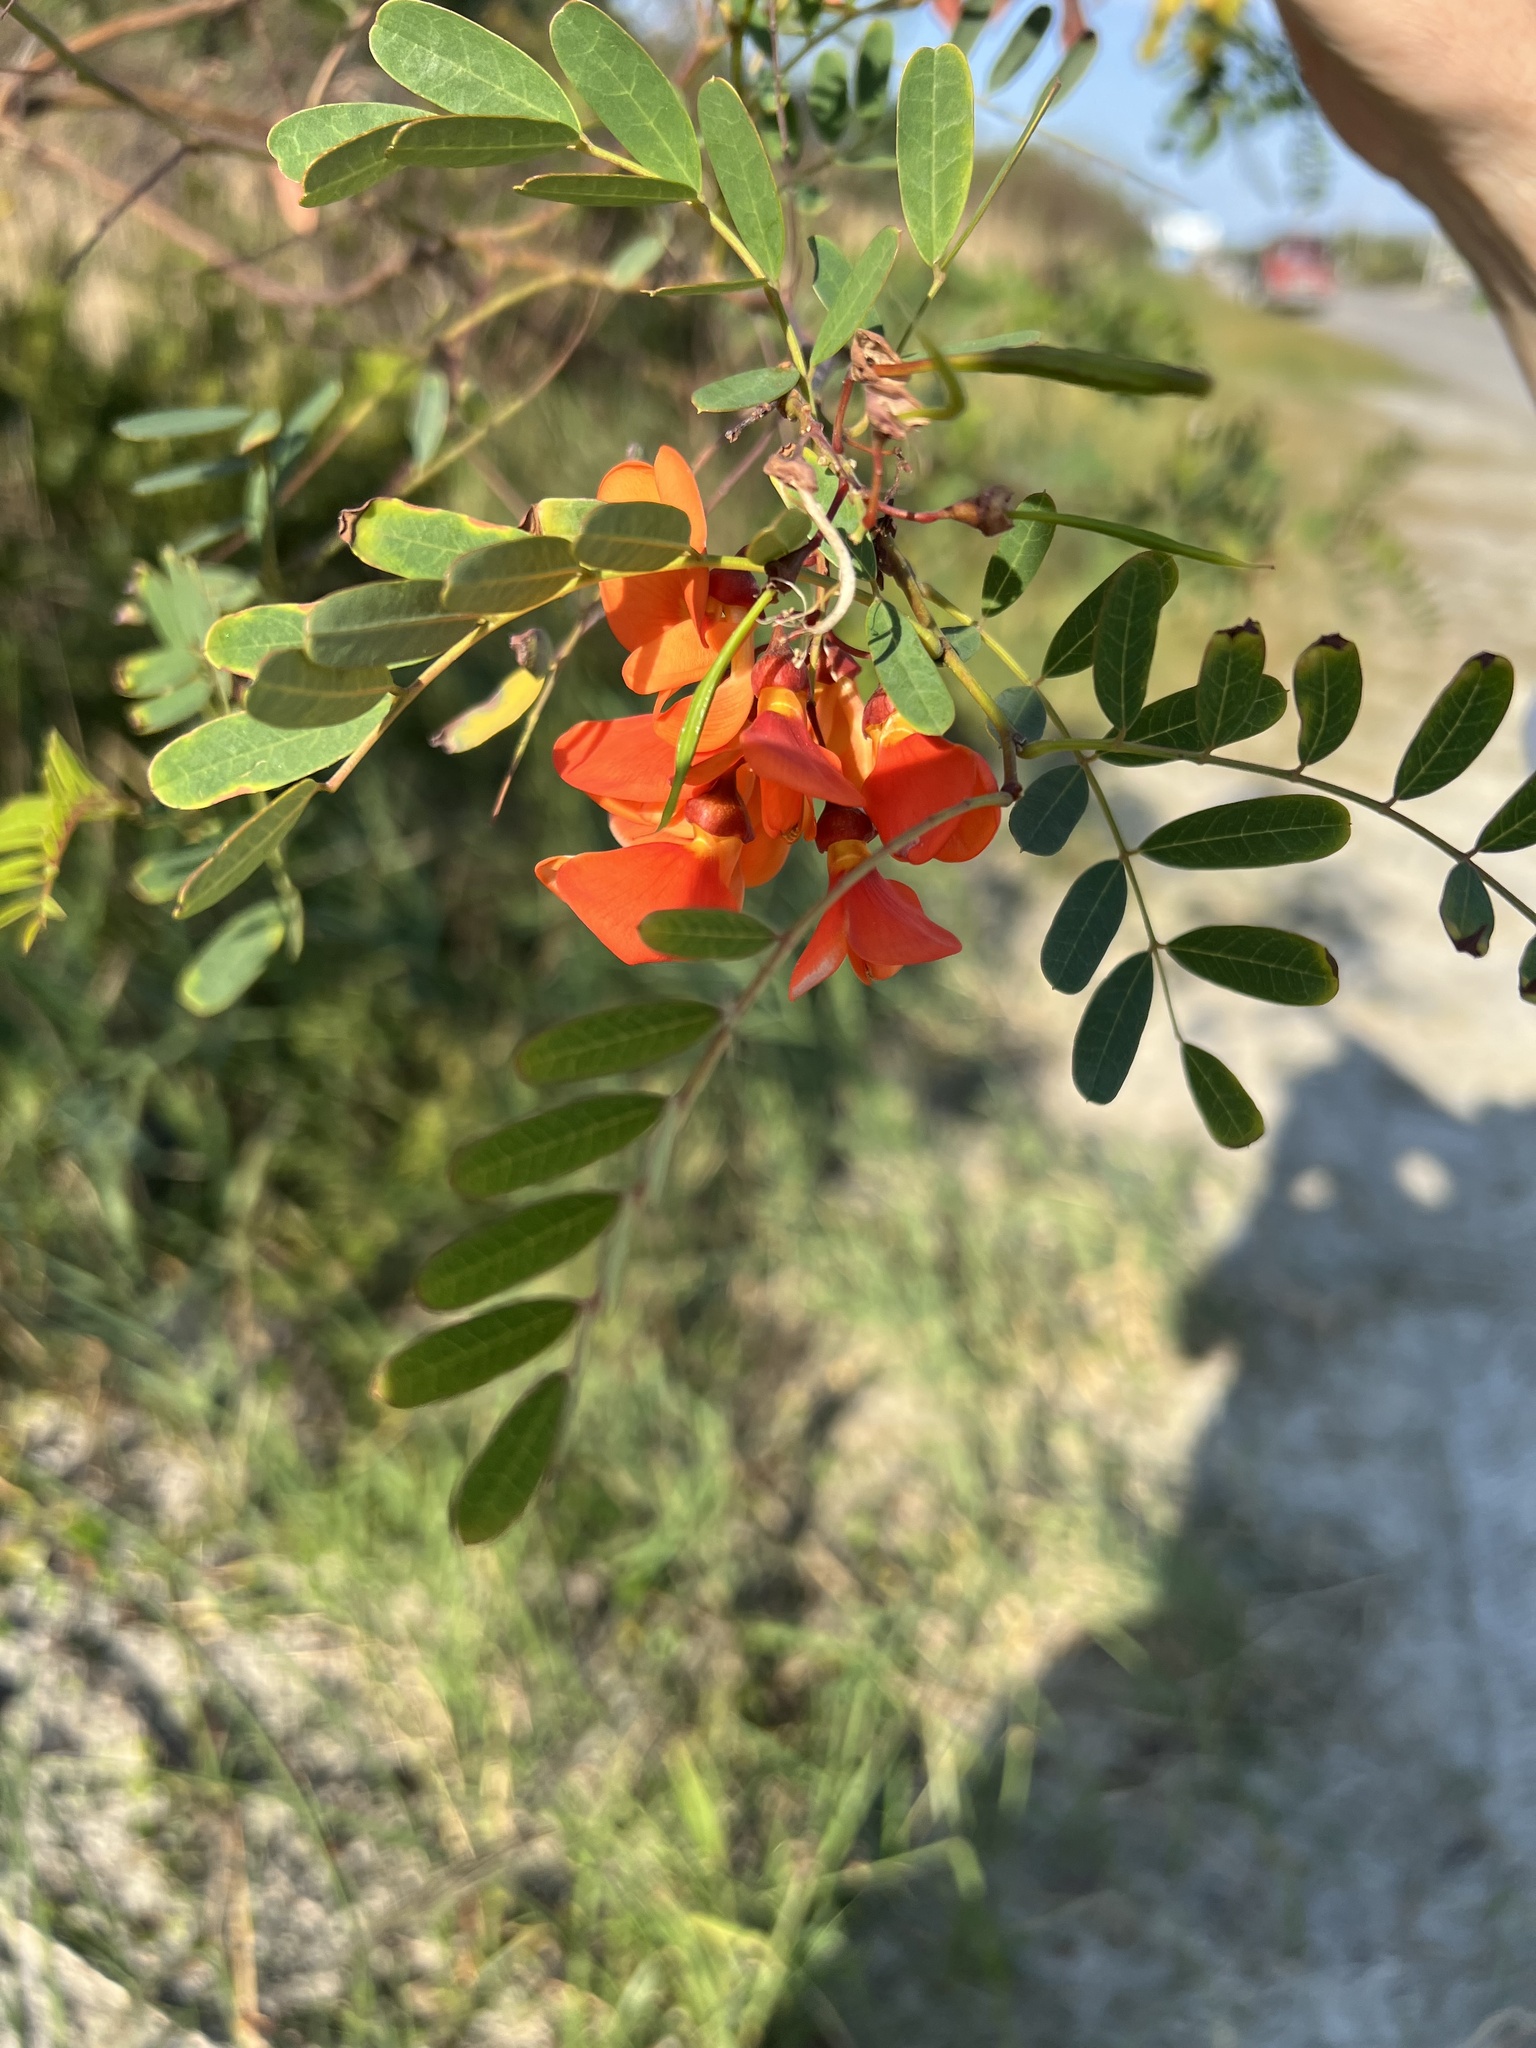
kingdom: Plantae
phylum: Tracheophyta
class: Magnoliopsida
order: Fabales
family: Fabaceae
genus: Sesbania
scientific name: Sesbania punicea
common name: Rattlebox
